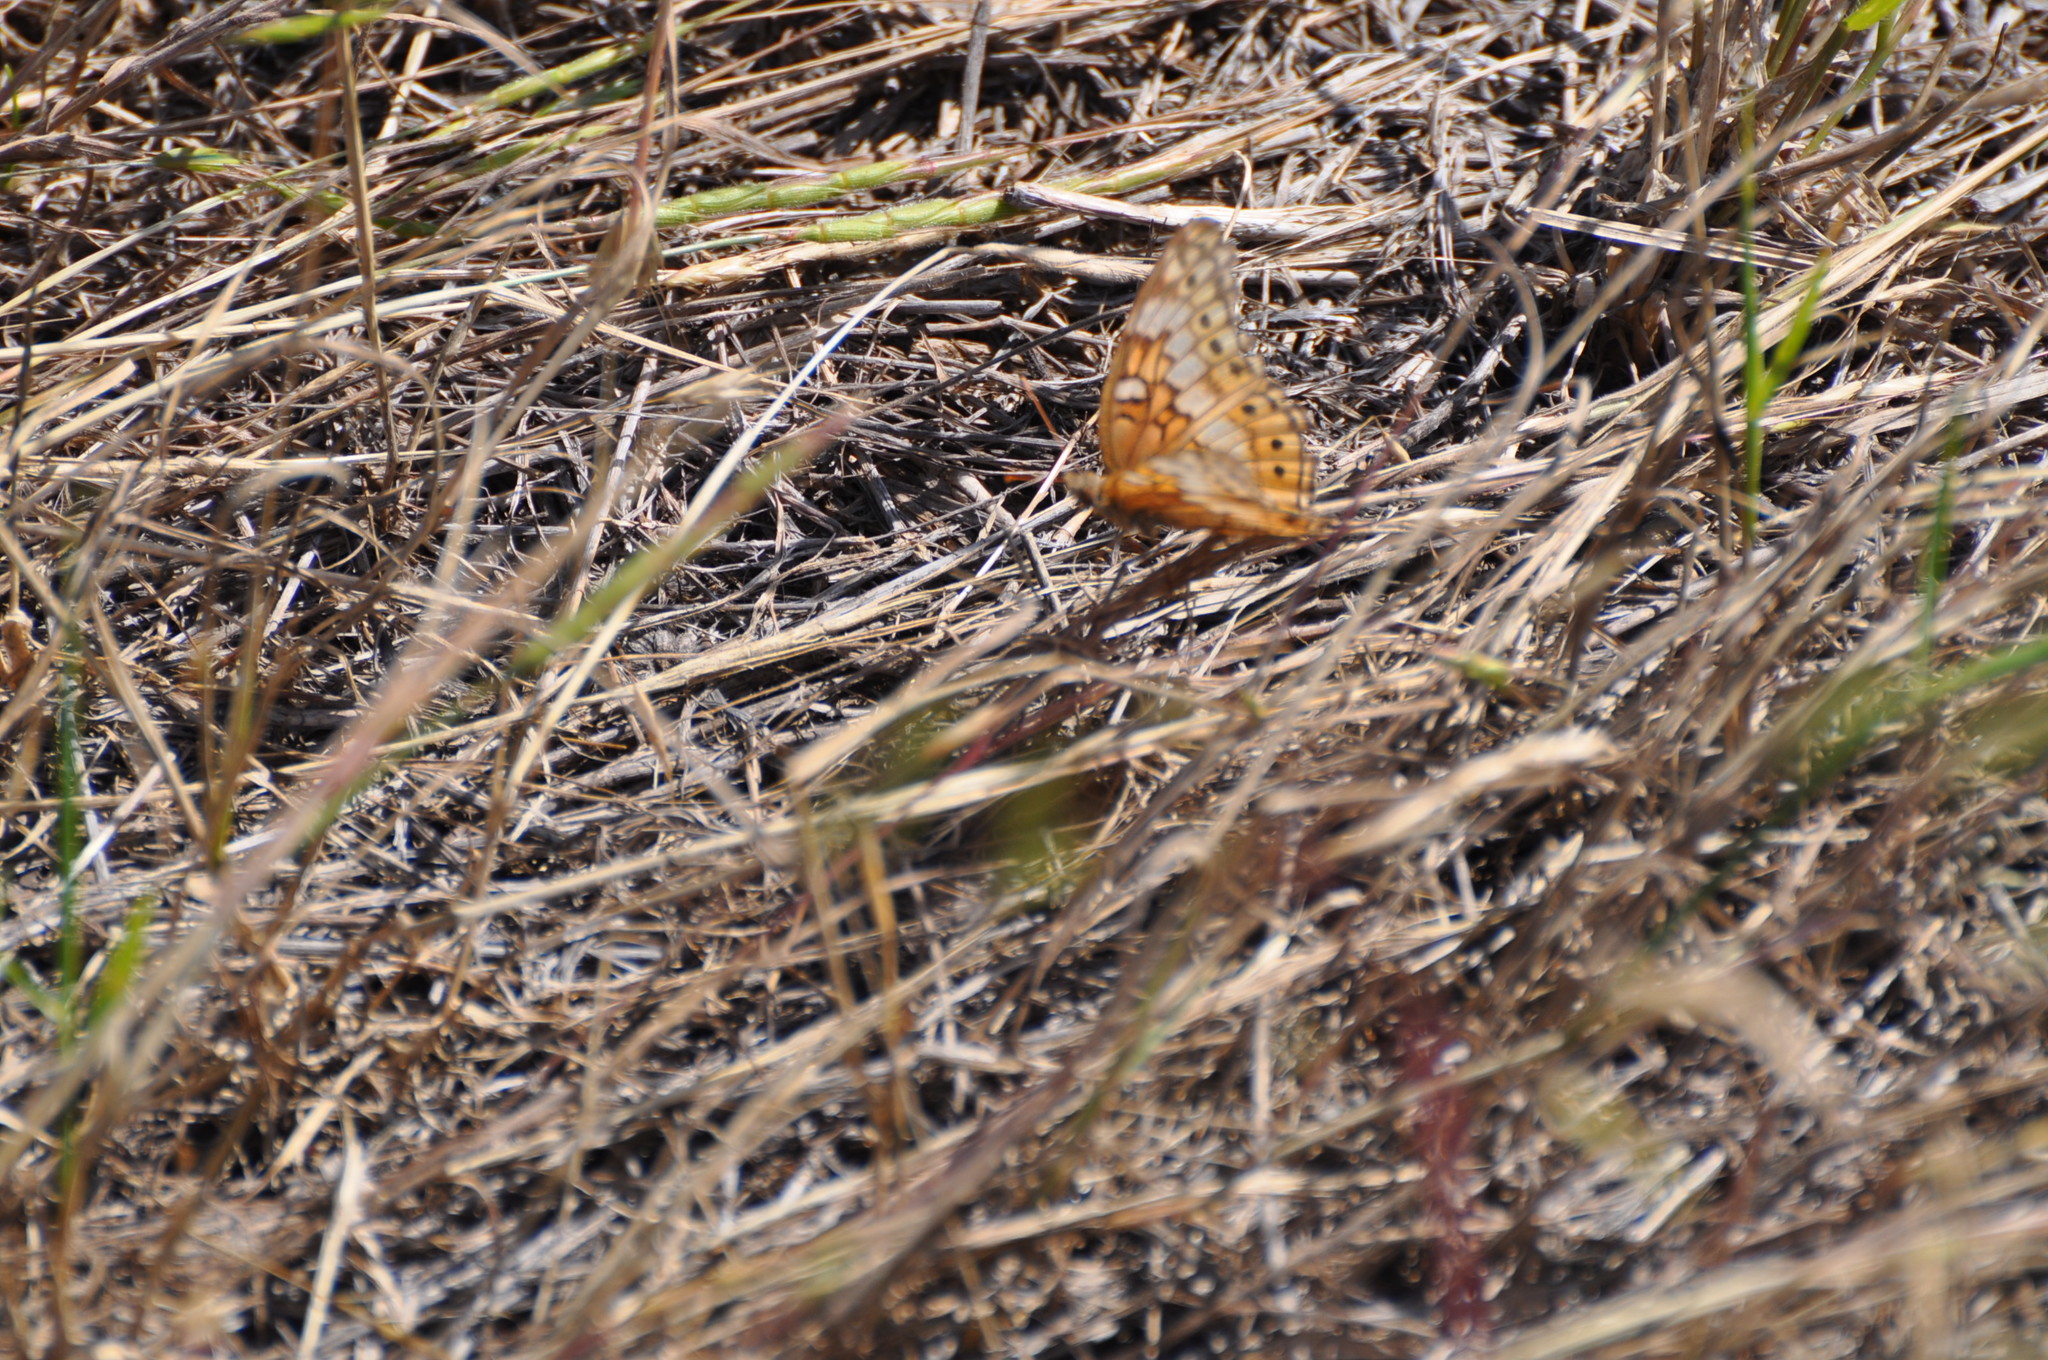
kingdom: Animalia
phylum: Arthropoda
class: Insecta
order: Lepidoptera
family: Nymphalidae
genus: Euptoieta
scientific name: Euptoieta claudia
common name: Variegated fritillary
